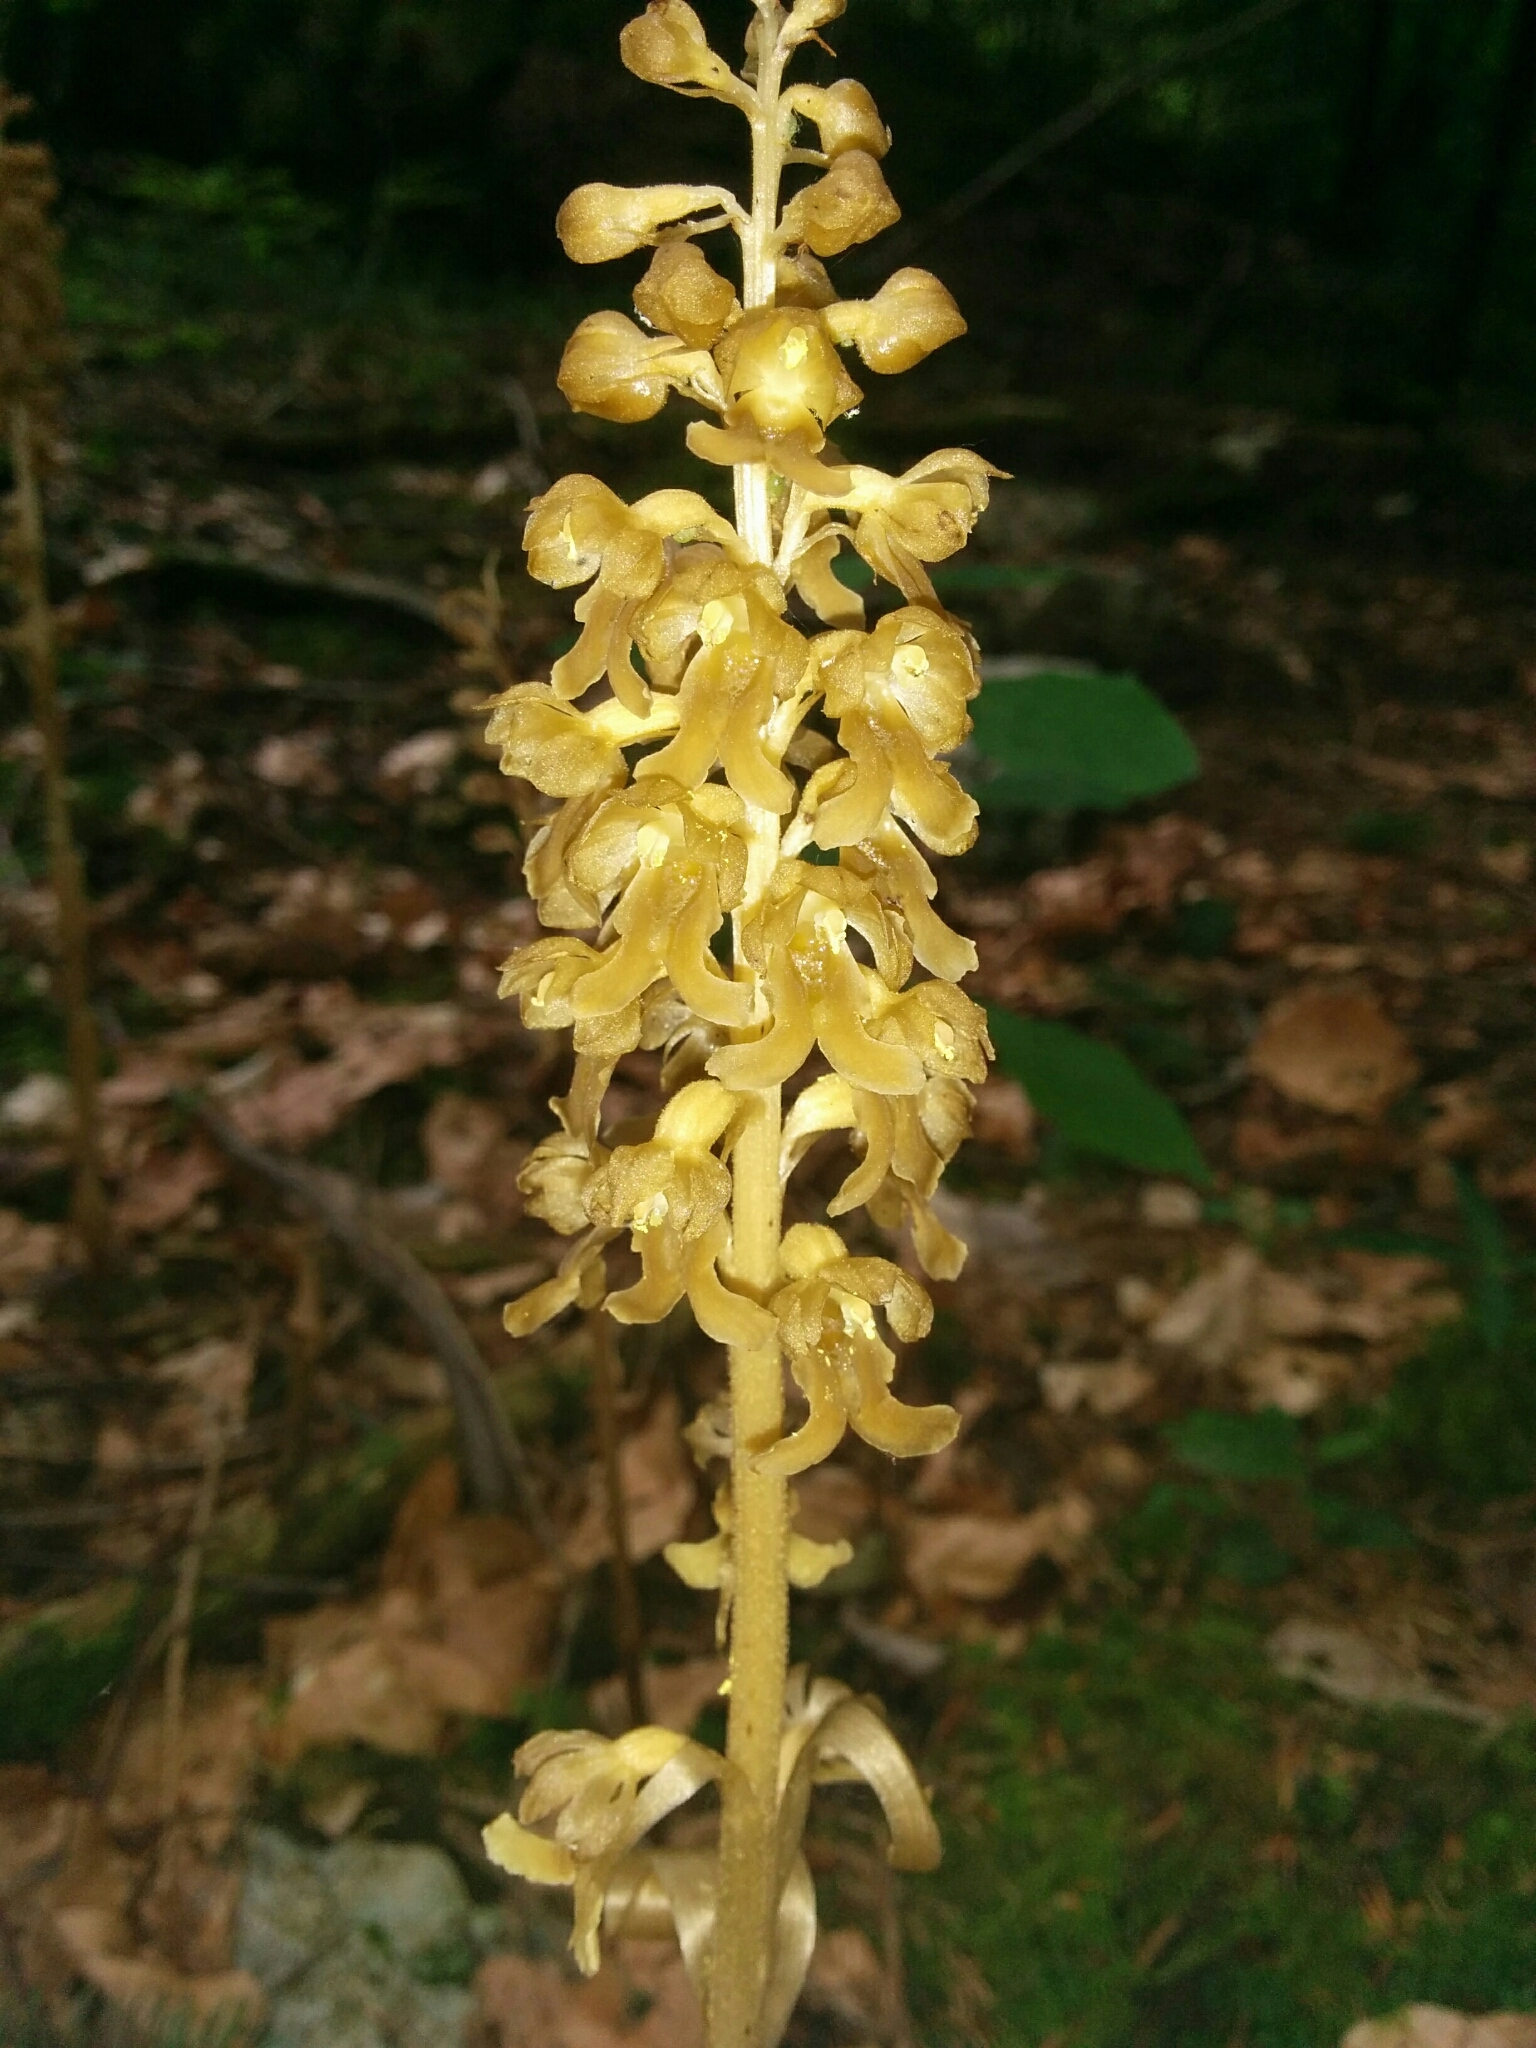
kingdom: Plantae
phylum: Tracheophyta
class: Liliopsida
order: Asparagales
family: Orchidaceae
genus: Neottia
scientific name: Neottia nidus-avis
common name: Bird's-nest orchid
